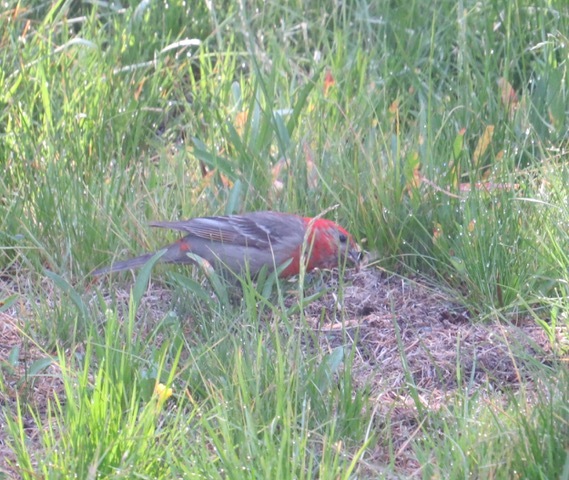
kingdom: Animalia
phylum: Chordata
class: Aves
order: Passeriformes
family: Fringillidae
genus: Pinicola
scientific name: Pinicola enucleator
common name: Pine grosbeak
